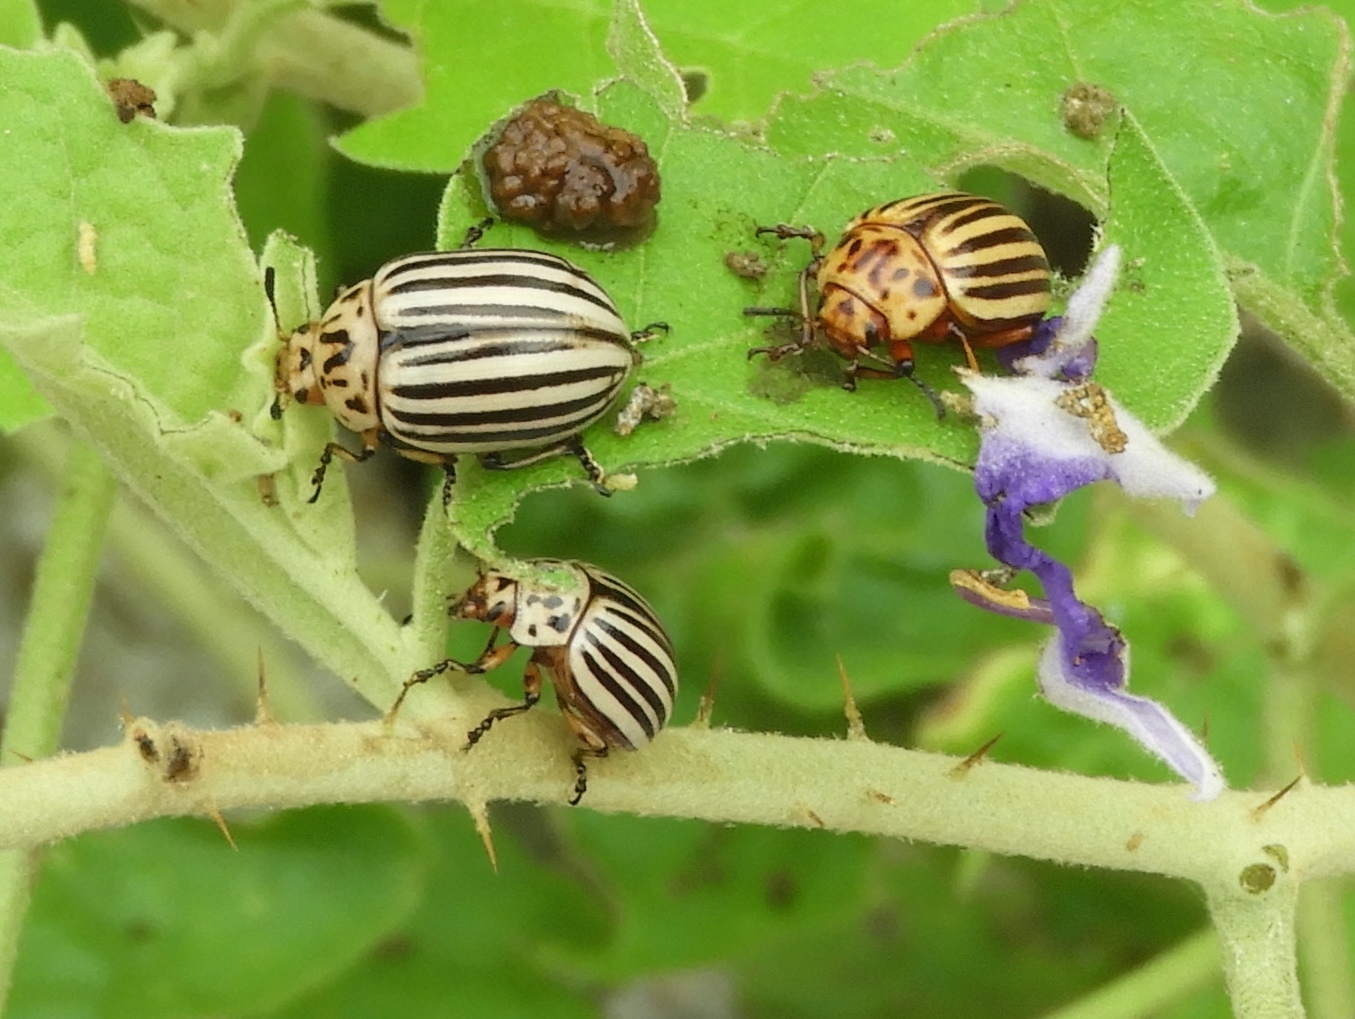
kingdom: Animalia
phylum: Arthropoda
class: Insecta
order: Coleoptera
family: Chrysomelidae
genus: Leptinotarsa
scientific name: Leptinotarsa decemlineata
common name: Colorado potato beetle
